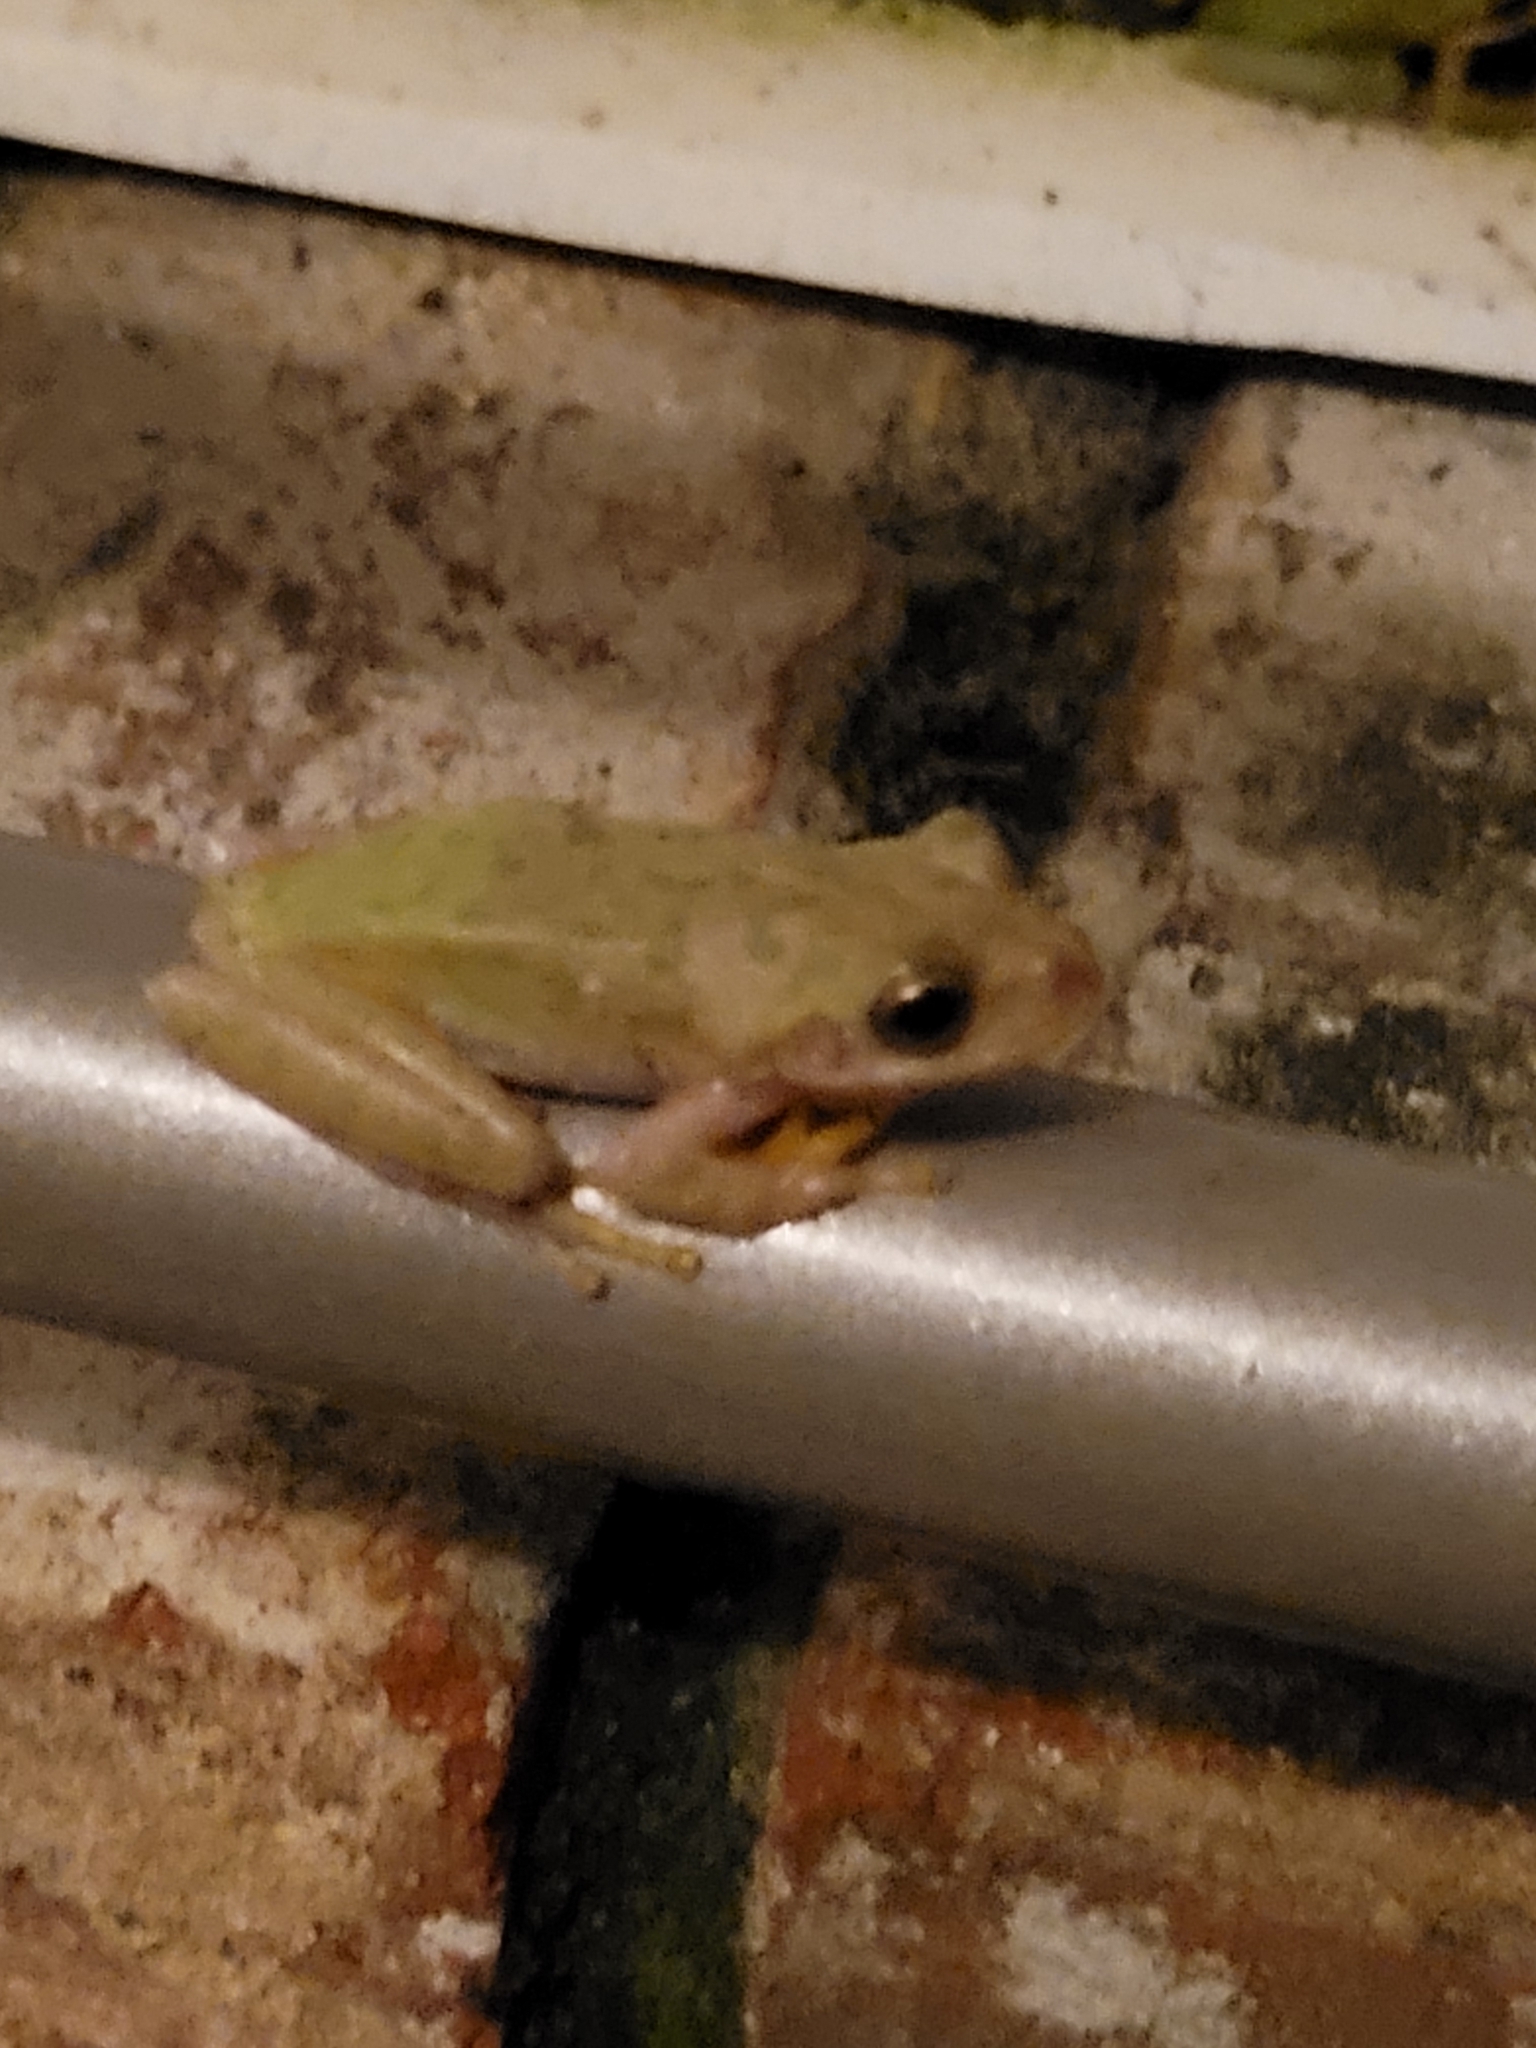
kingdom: Animalia
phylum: Chordata
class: Amphibia
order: Anura
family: Hylidae
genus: Dryophytes
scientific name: Dryophytes squirellus
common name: Squirrel treefrog
